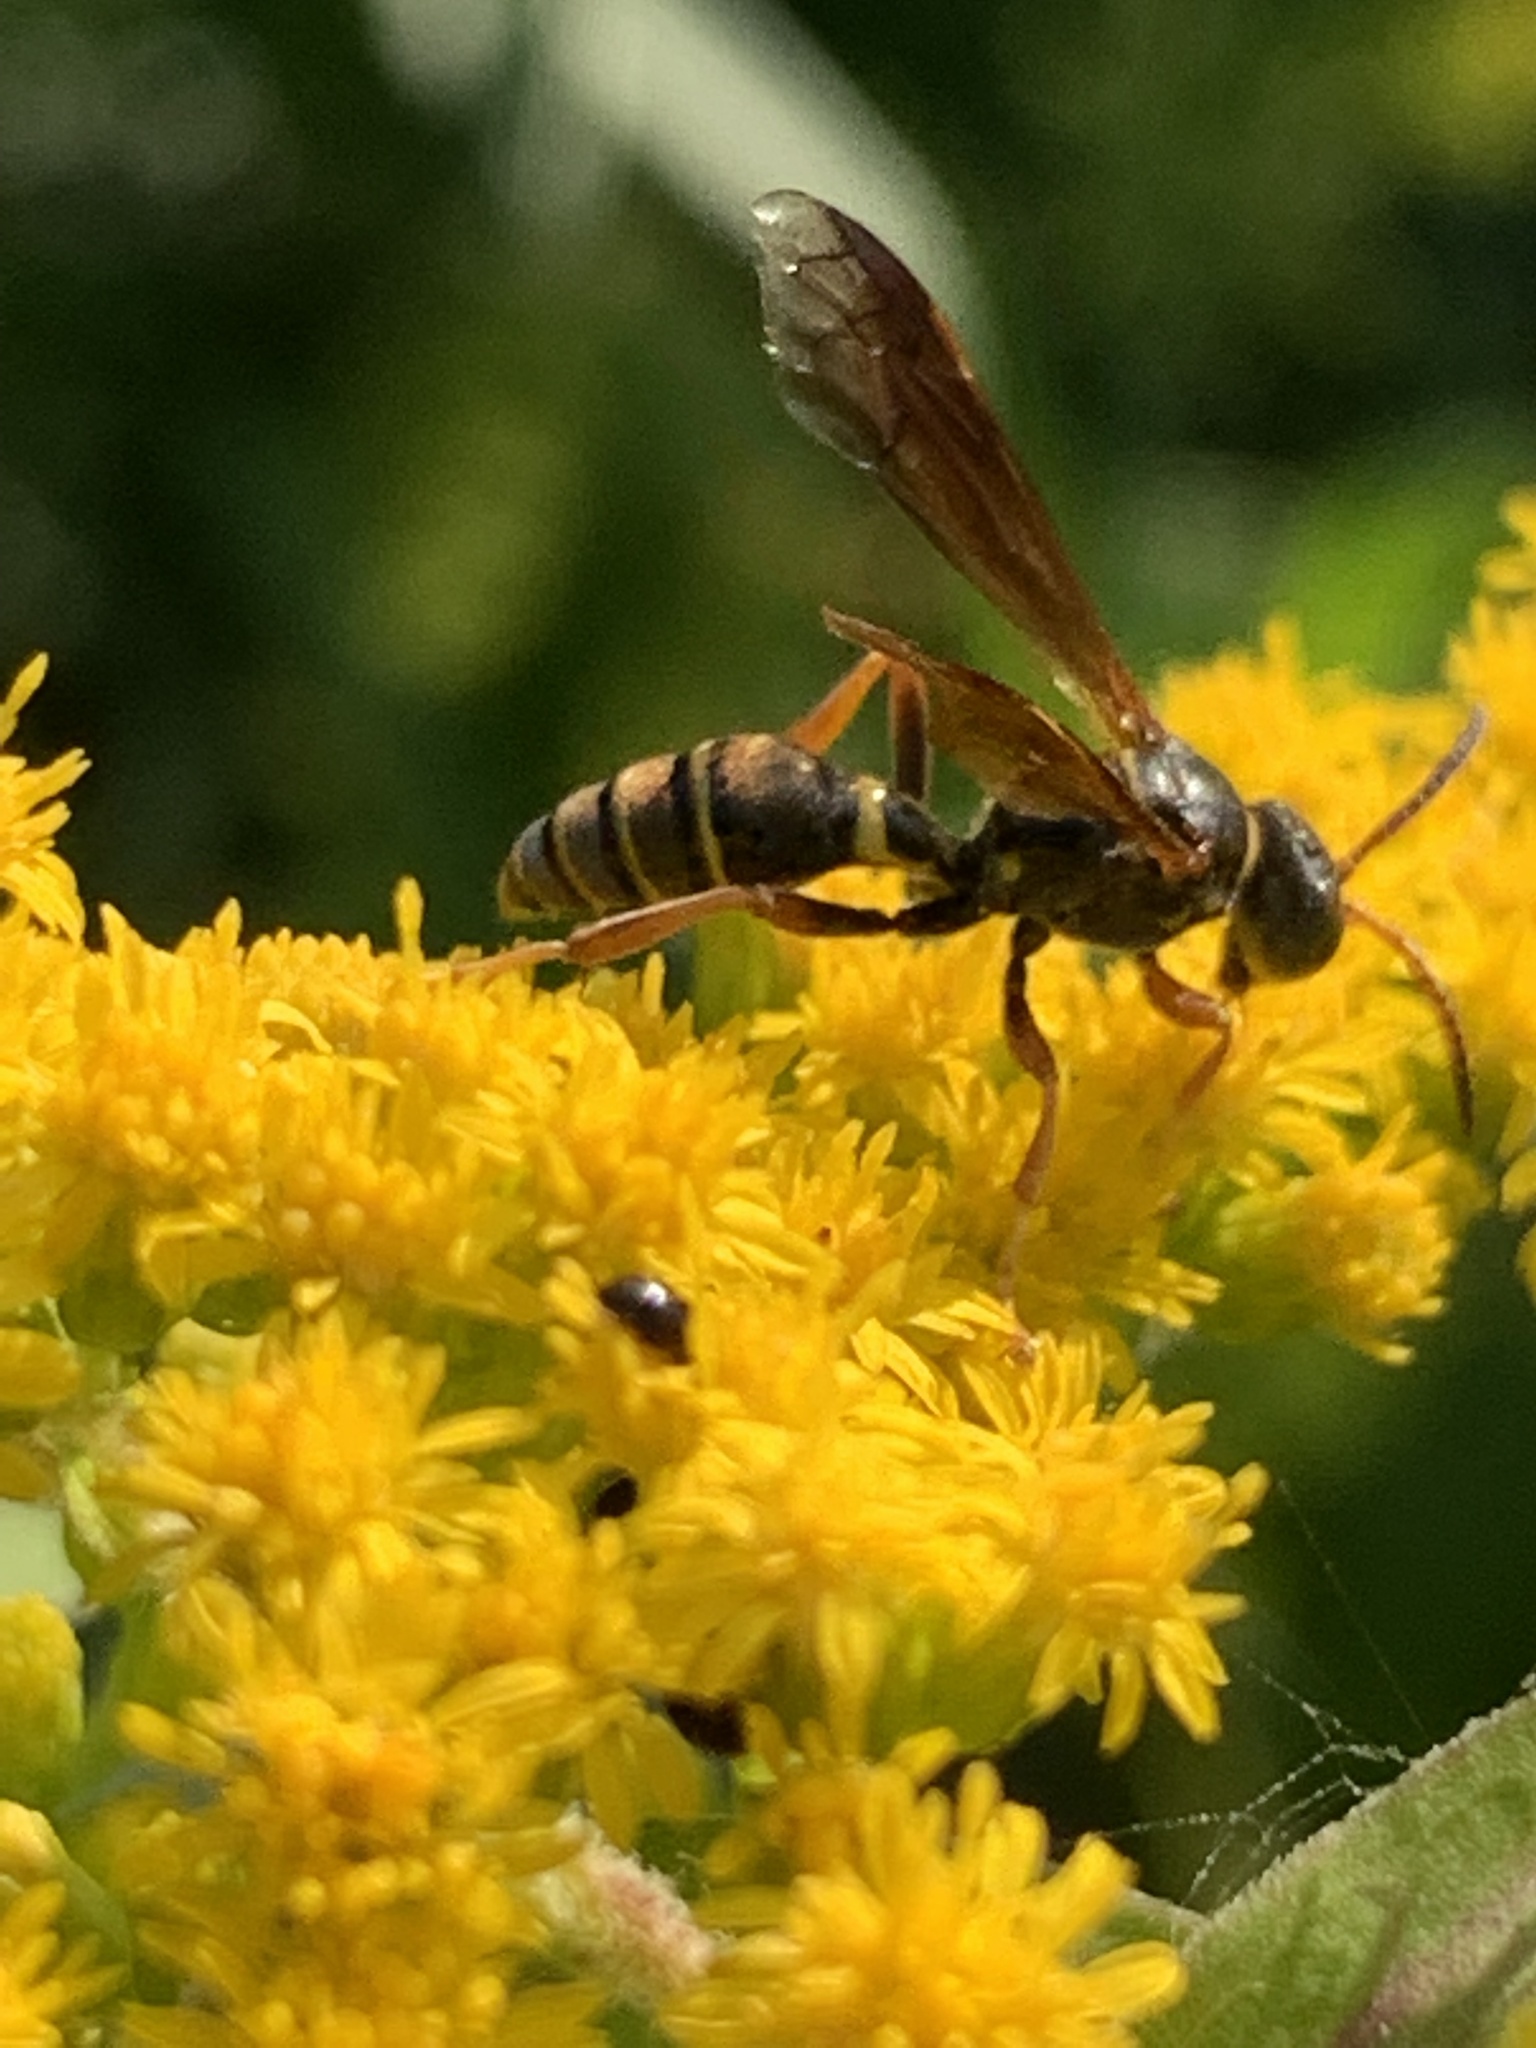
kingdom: Animalia
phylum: Arthropoda
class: Insecta
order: Hymenoptera
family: Crabronidae
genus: Saygorytes
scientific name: Saygorytes phaleratus
